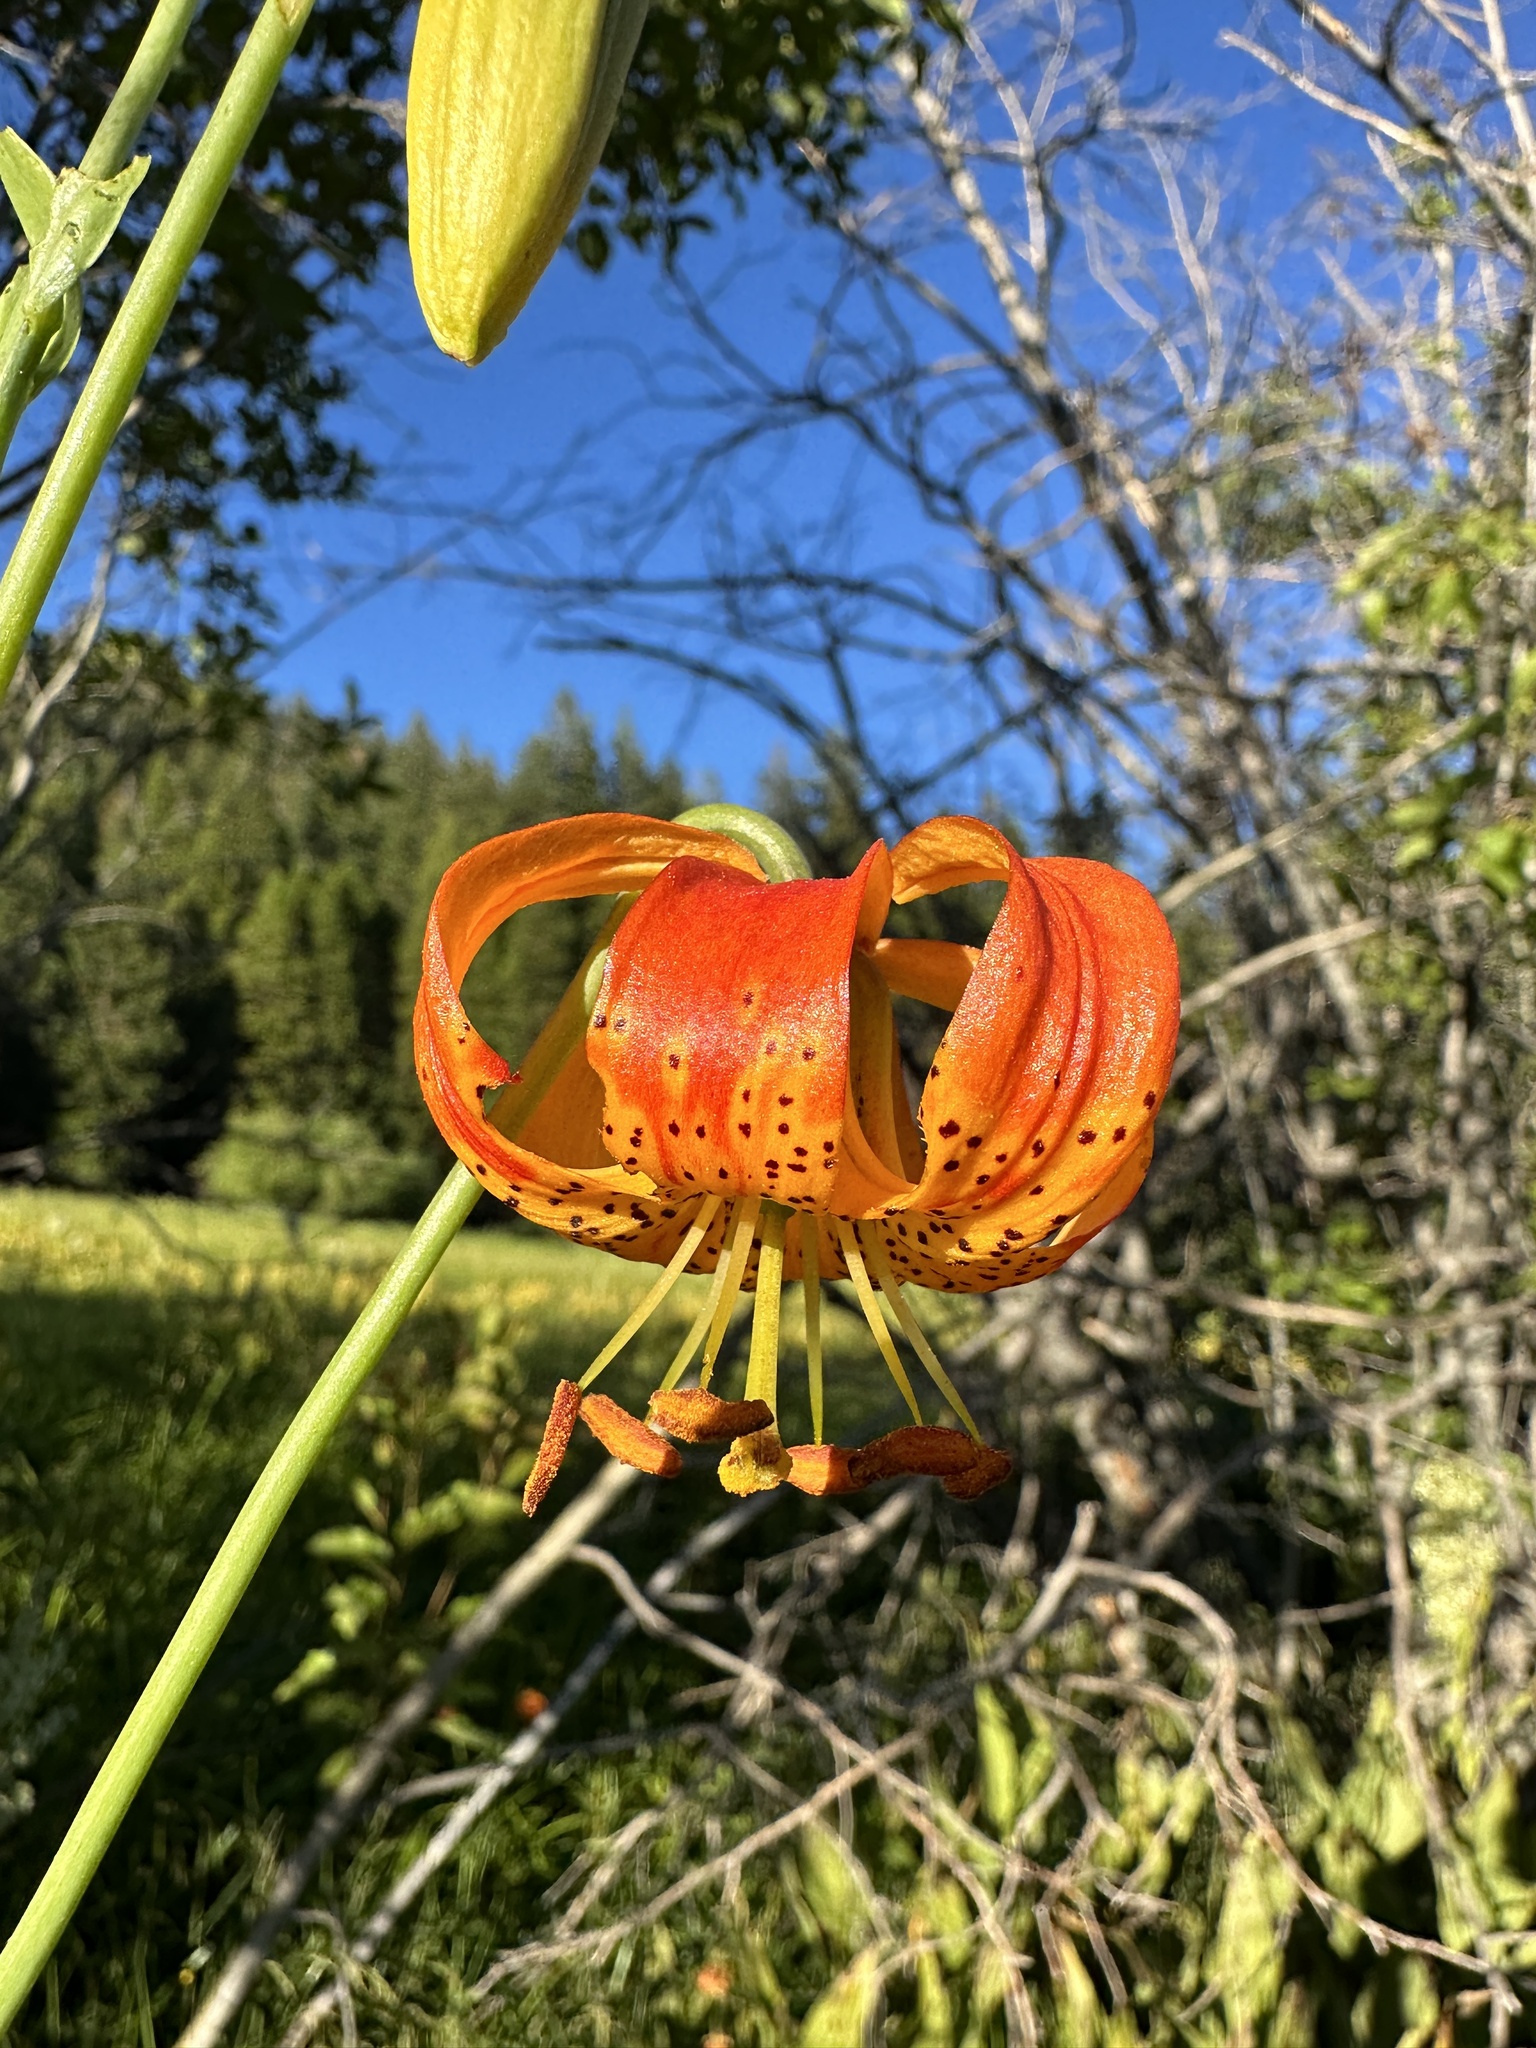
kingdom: Plantae
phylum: Tracheophyta
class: Liliopsida
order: Liliales
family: Liliaceae
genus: Lilium
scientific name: Lilium pardalinum
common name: Panther lily
